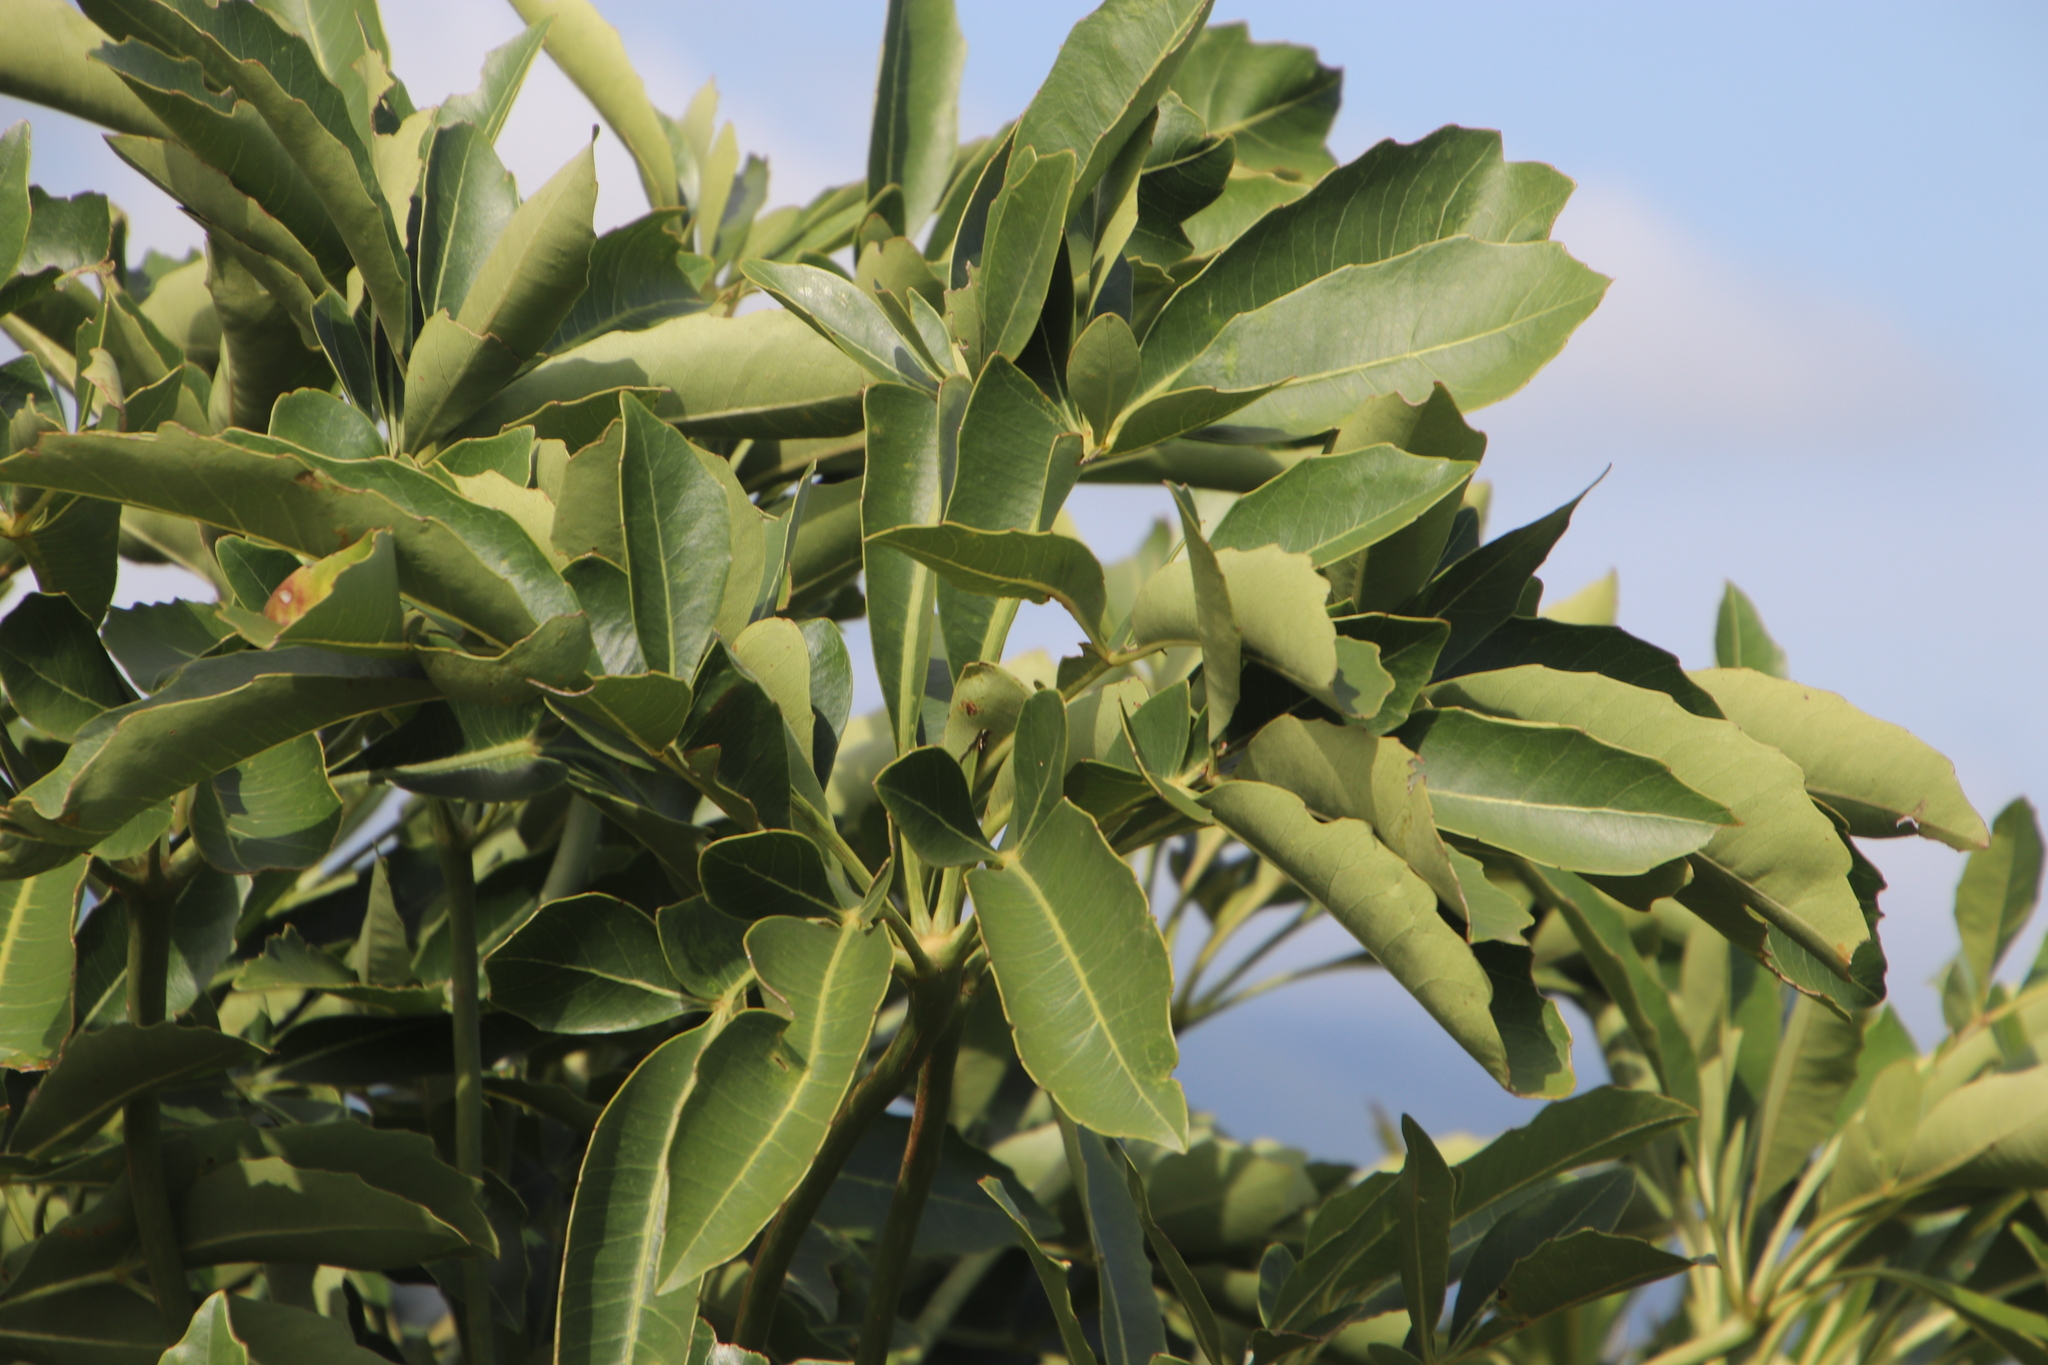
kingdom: Plantae
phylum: Tracheophyta
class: Magnoliopsida
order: Apiales
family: Araliaceae
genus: Cussonia
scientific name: Cussonia spicata
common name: Common cabbagetree
